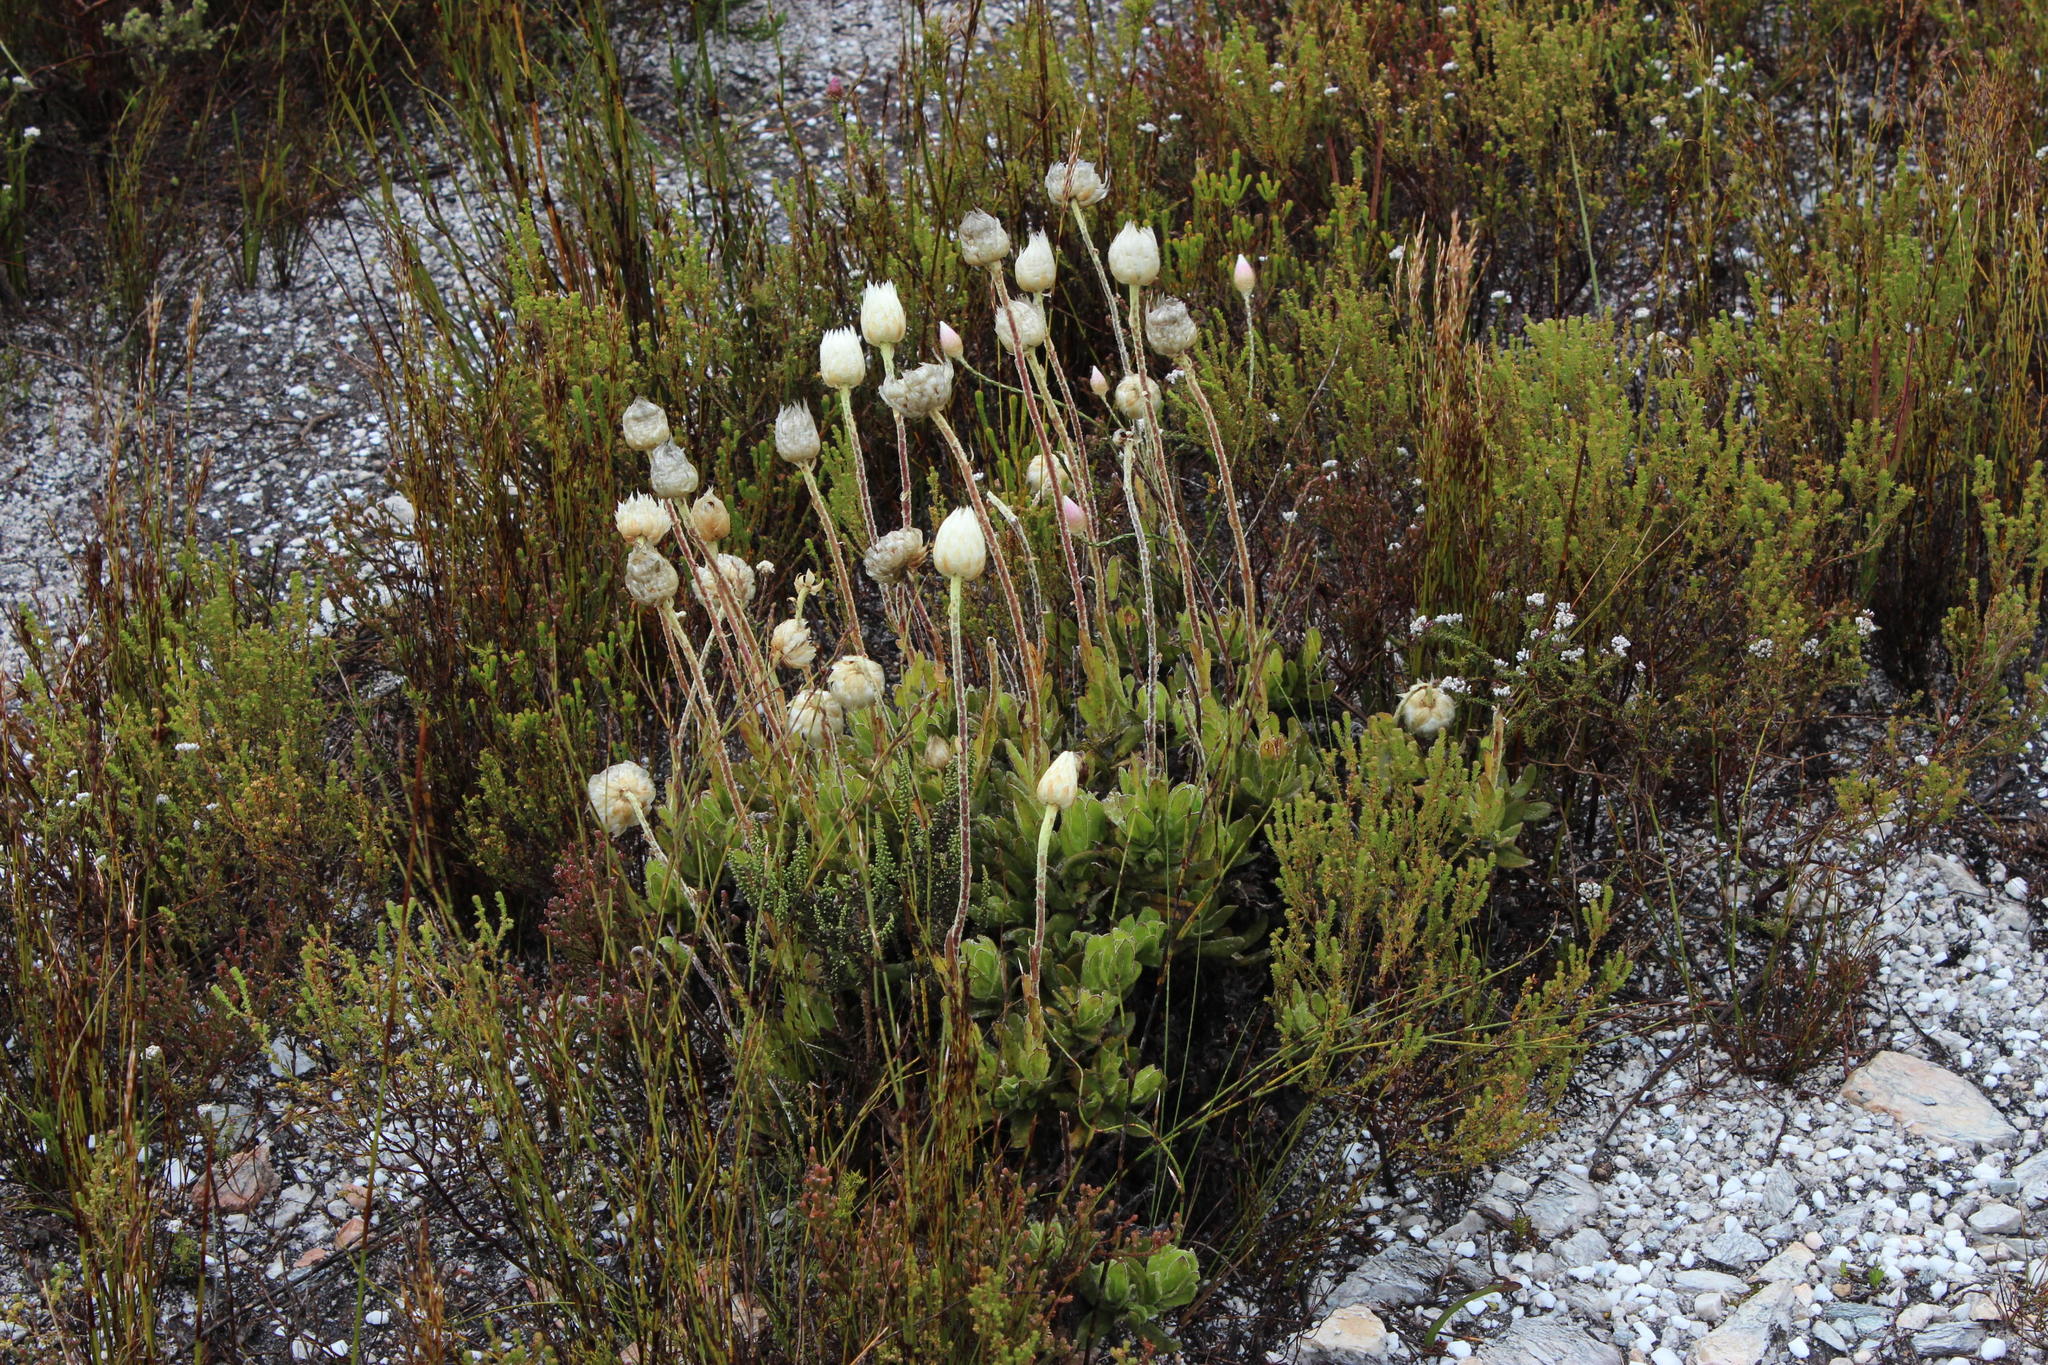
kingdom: Plantae
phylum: Tracheophyta
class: Magnoliopsida
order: Asterales
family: Asteraceae
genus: Syncarpha
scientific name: Syncarpha speciosissima
